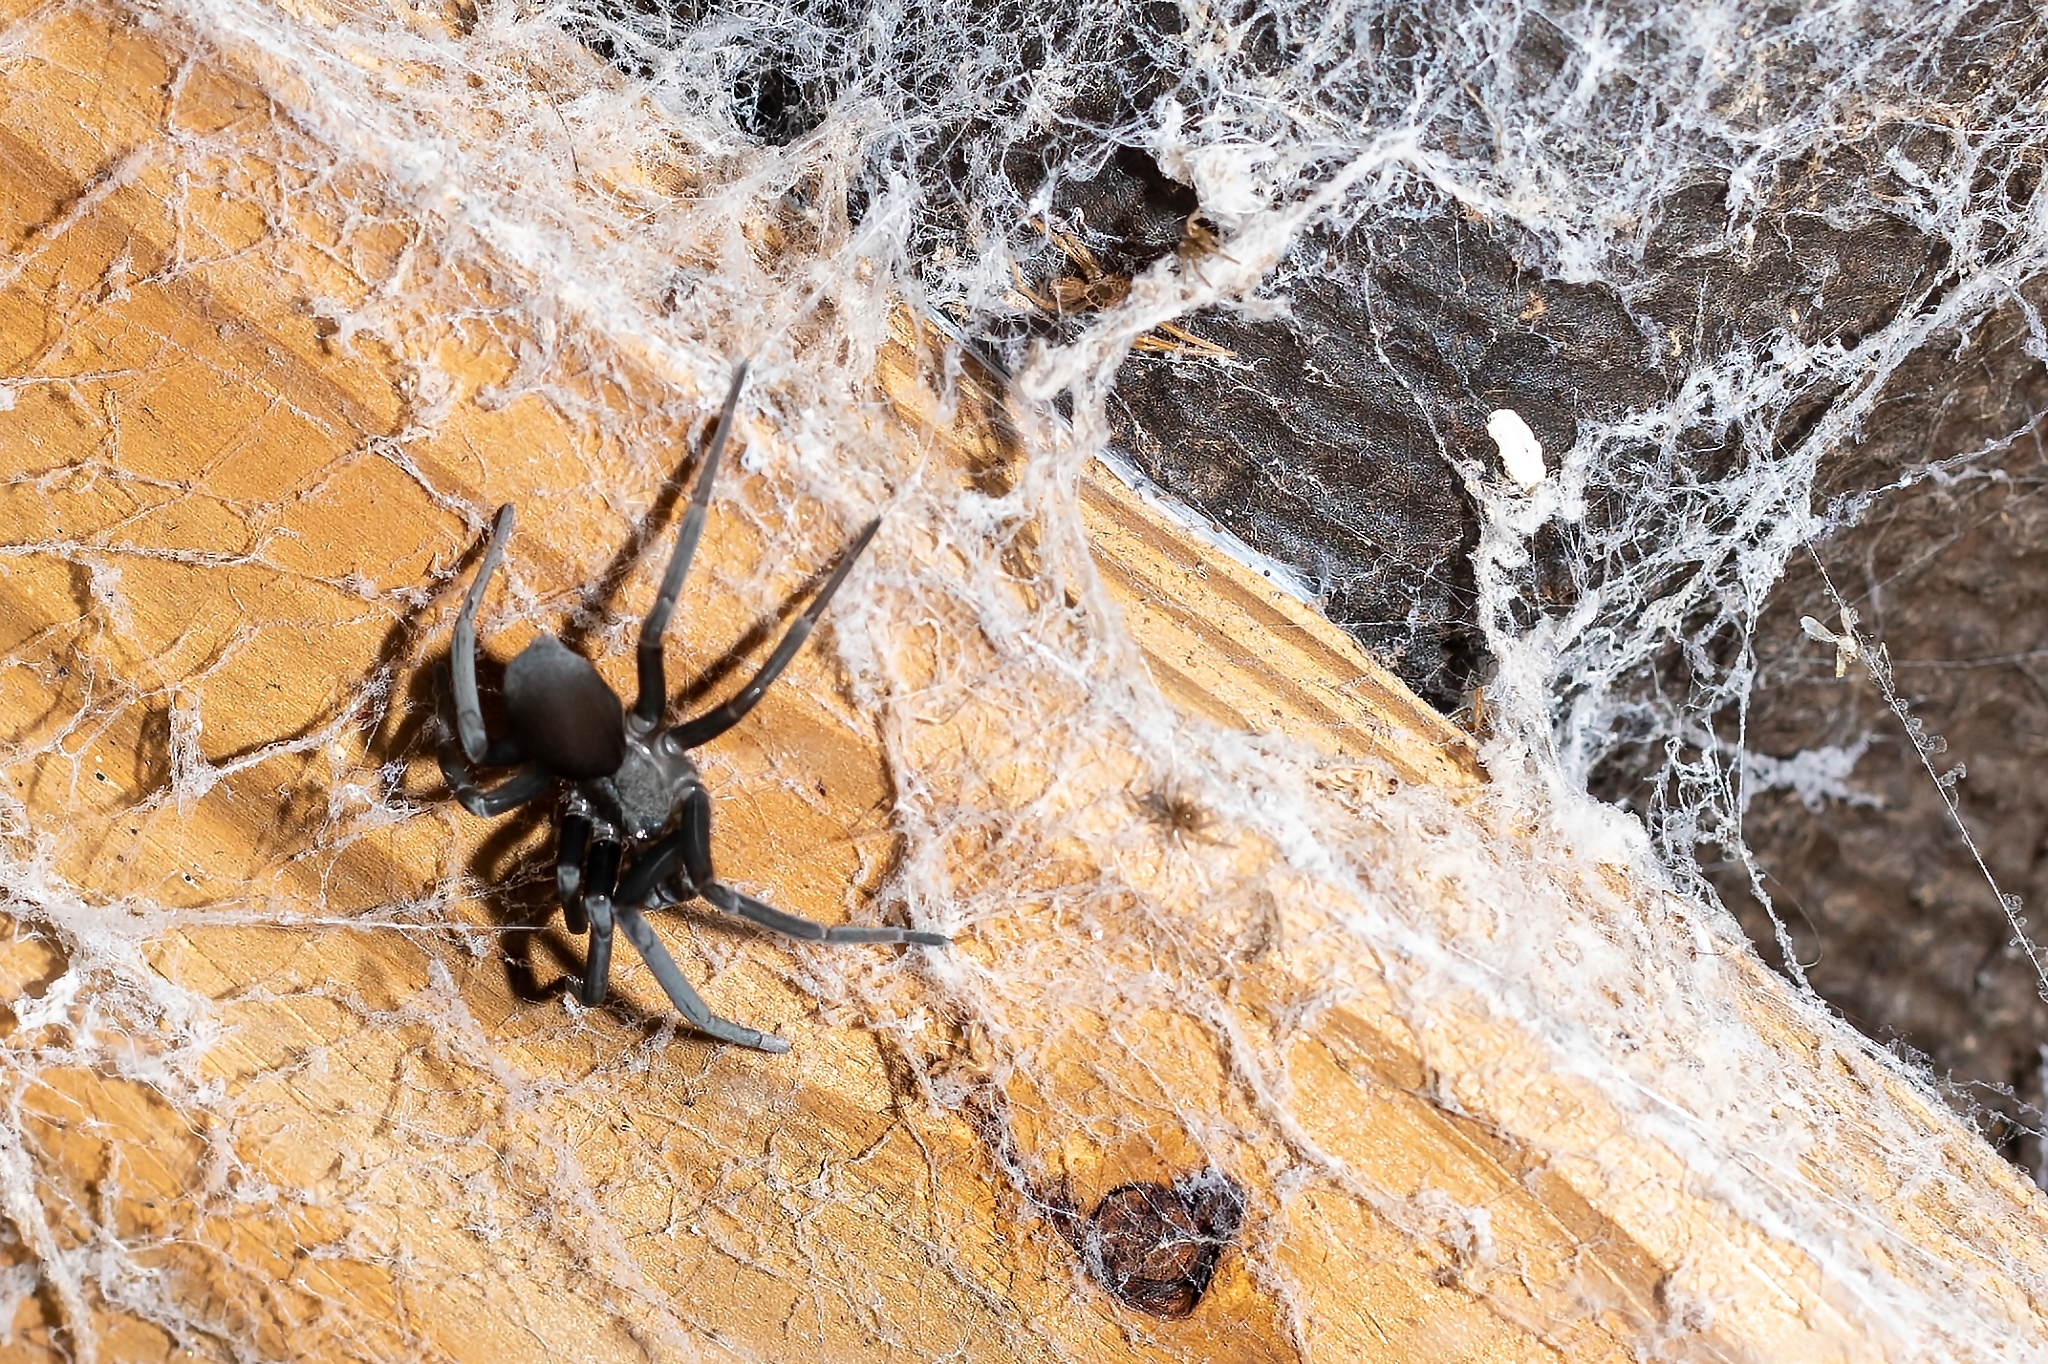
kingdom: Animalia
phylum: Arthropoda
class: Arachnida
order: Araneae
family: Filistatidae
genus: Kukulcania
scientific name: Kukulcania hibernalis
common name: Crevice weaver
